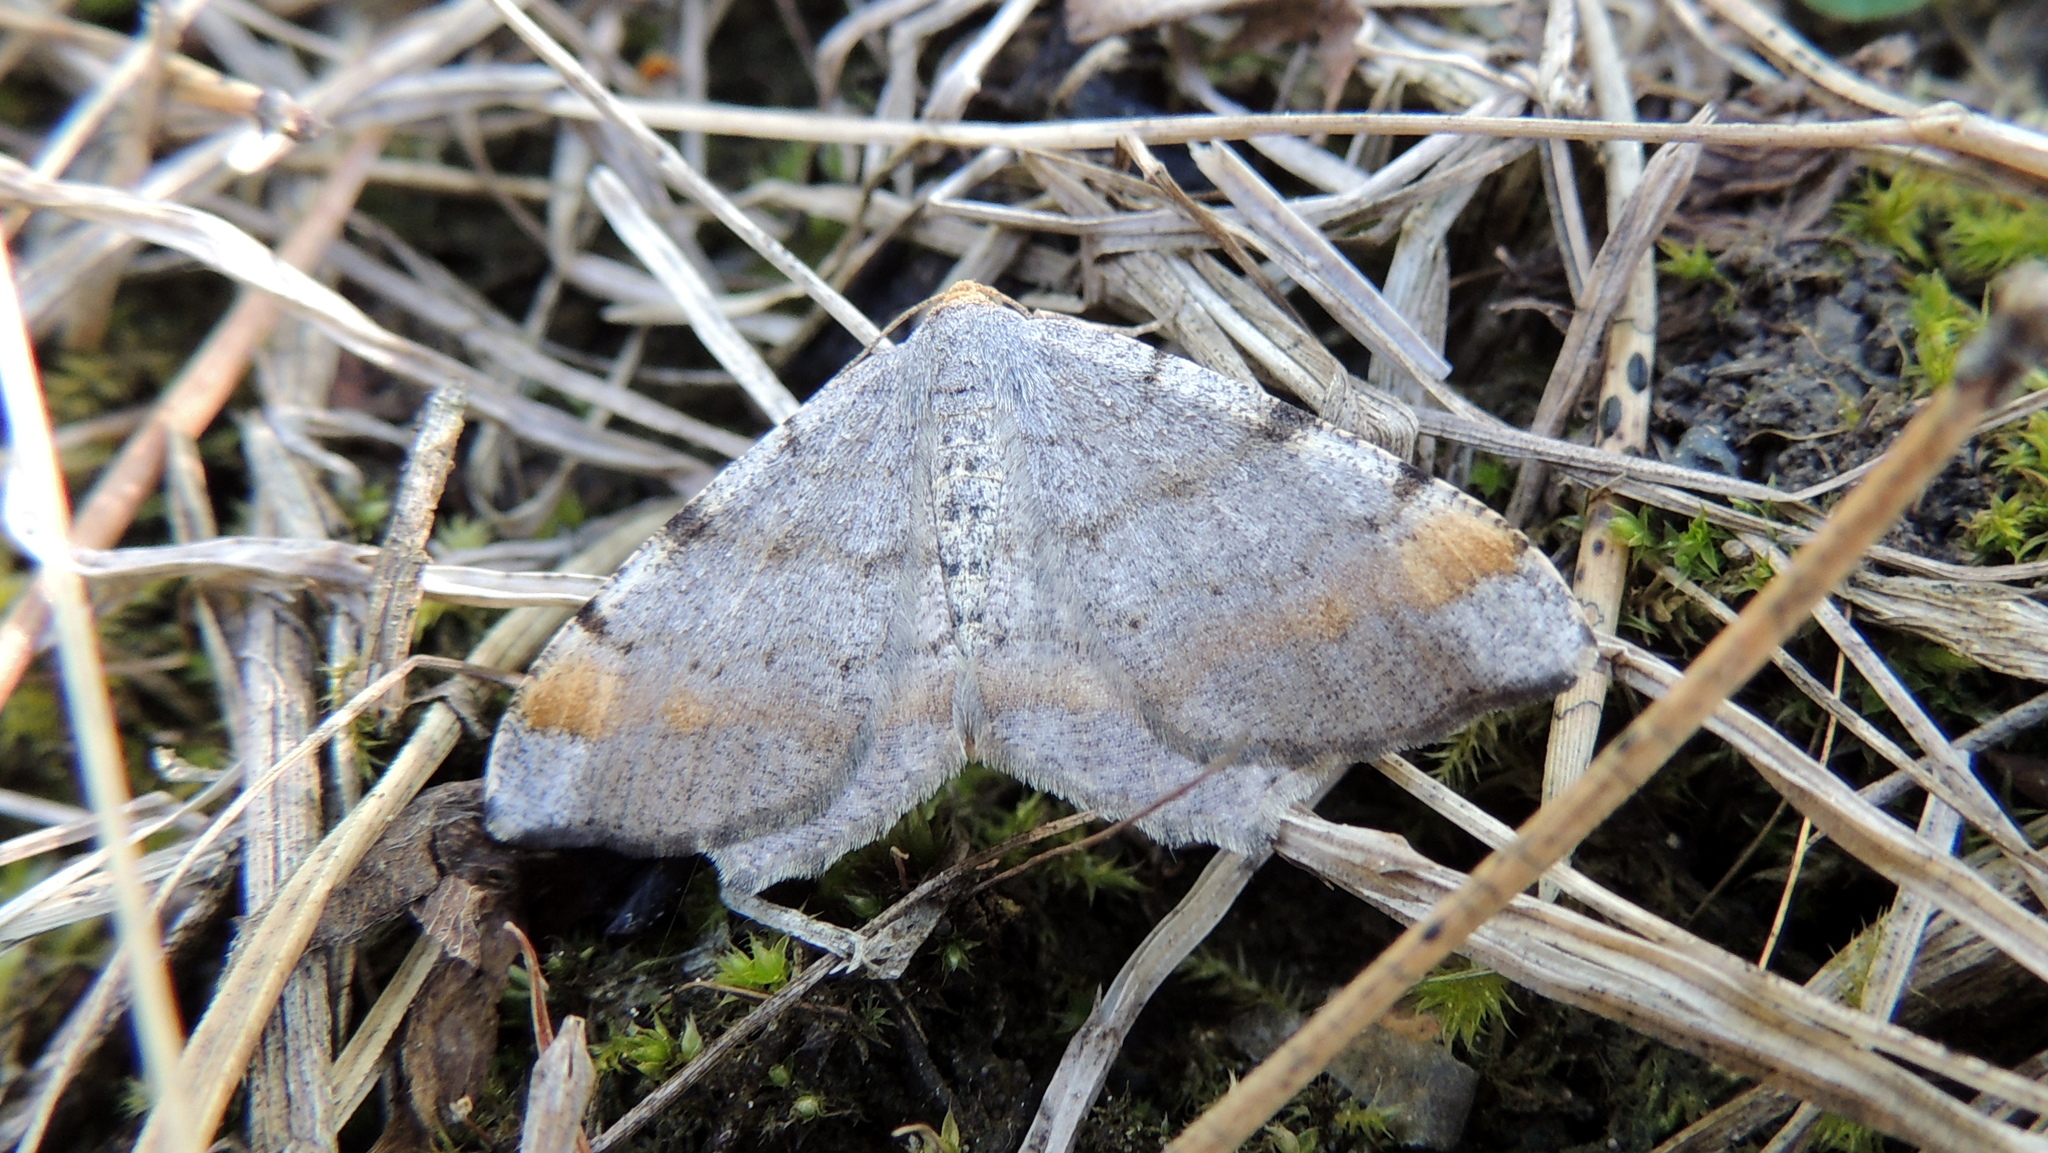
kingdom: Animalia
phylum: Arthropoda
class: Insecta
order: Lepidoptera
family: Geometridae
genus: Macaria
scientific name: Macaria liturata
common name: Tawny-barred angle
